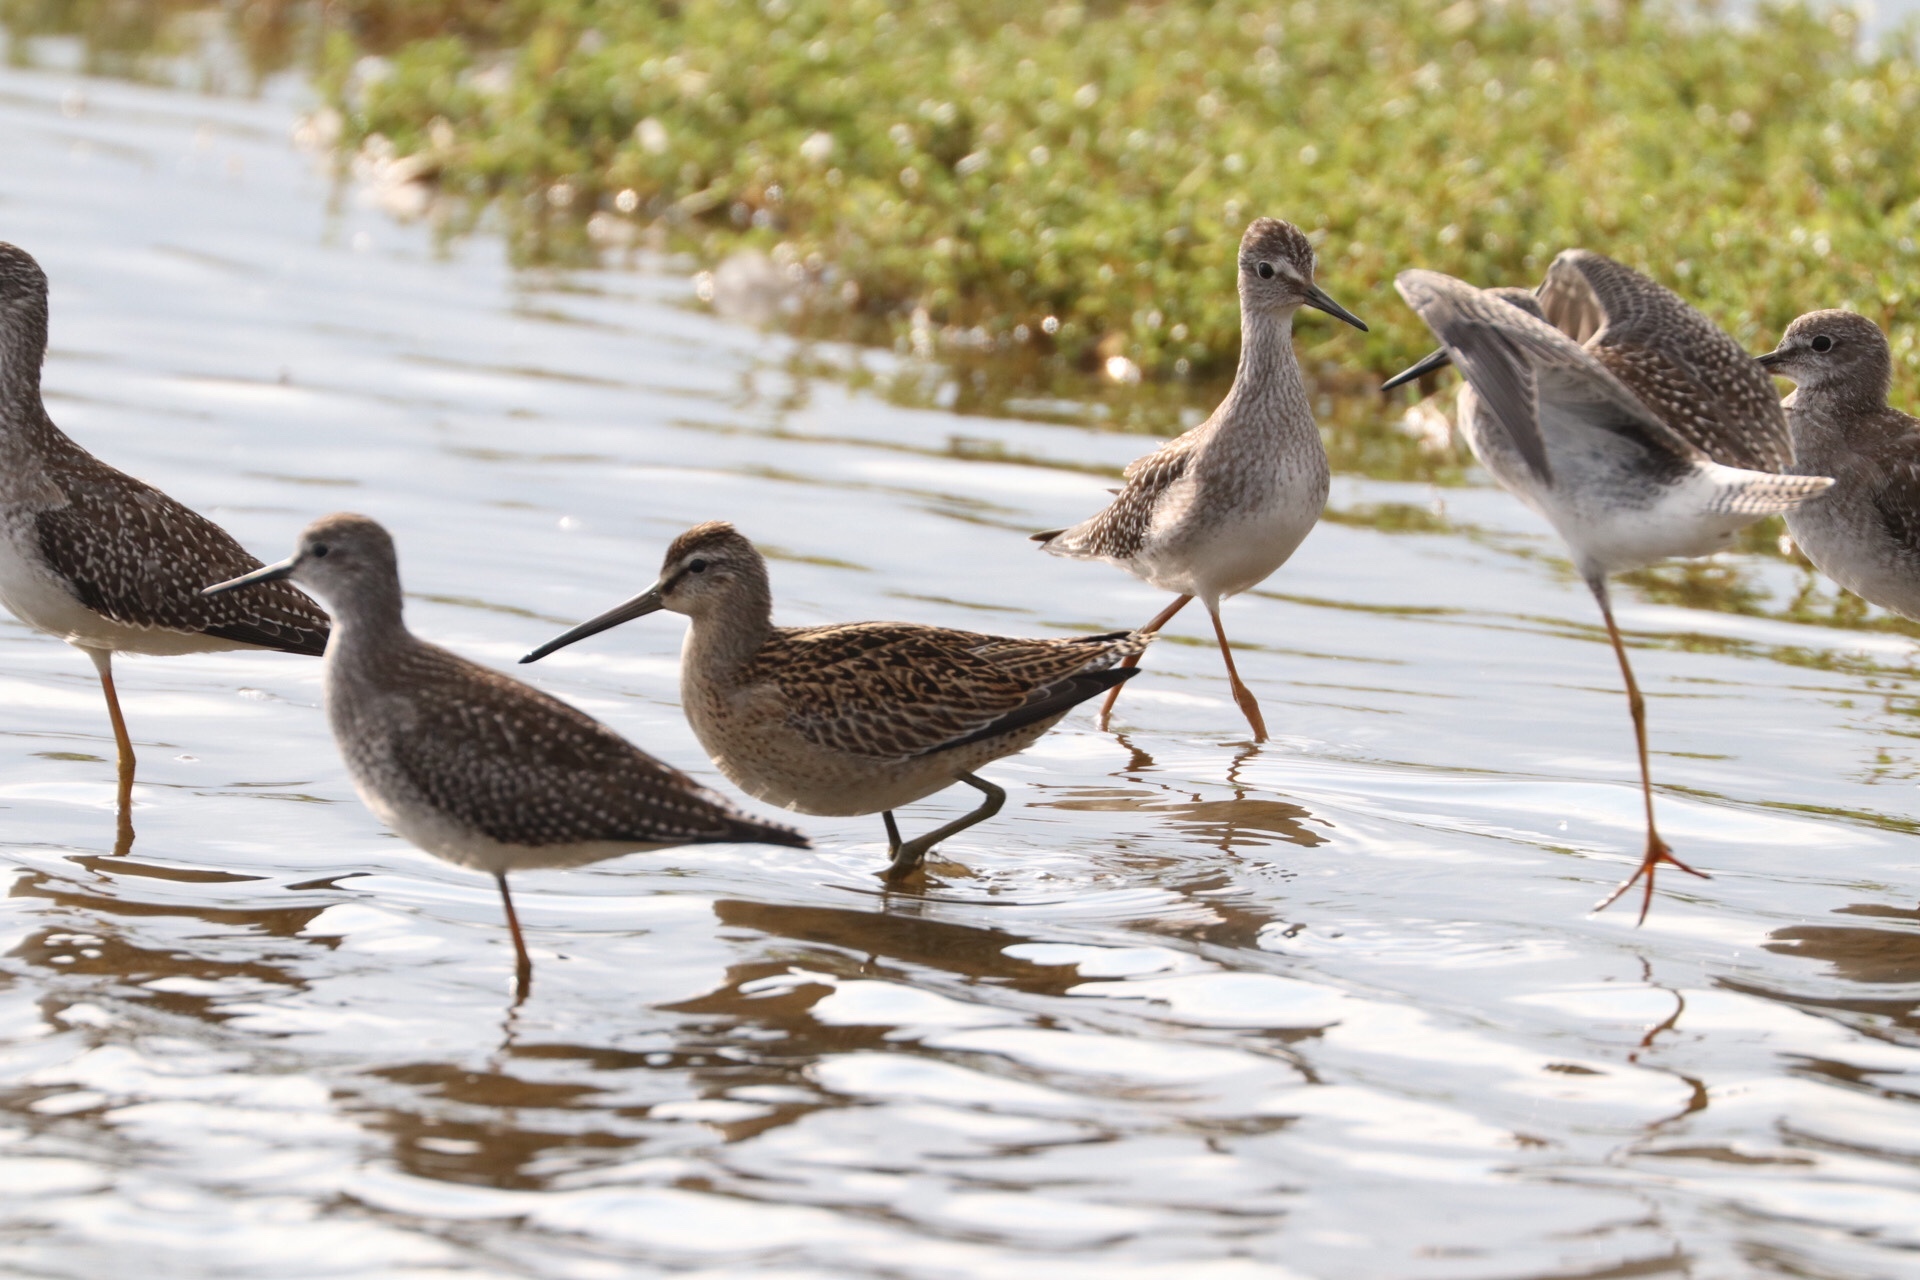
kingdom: Animalia
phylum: Chordata
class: Aves
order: Charadriiformes
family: Scolopacidae
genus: Limnodromus
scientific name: Limnodromus griseus
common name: Short-billed dowitcher
